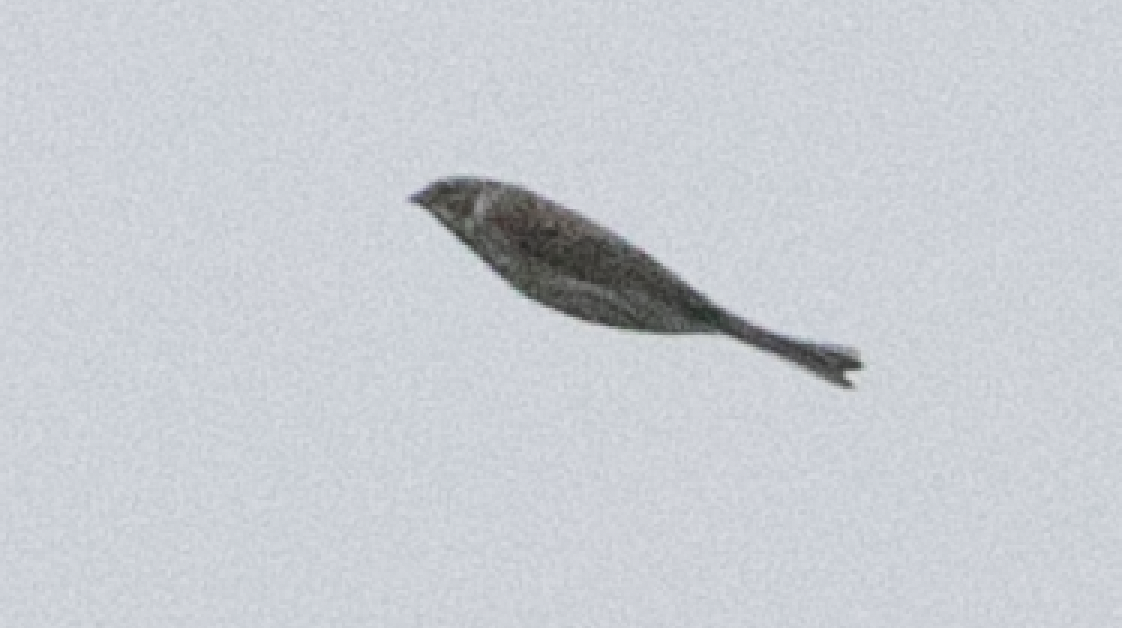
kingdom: Animalia
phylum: Chordata
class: Aves
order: Passeriformes
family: Emberizidae
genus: Emberiza
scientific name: Emberiza schoeniclus
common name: Reed bunting
